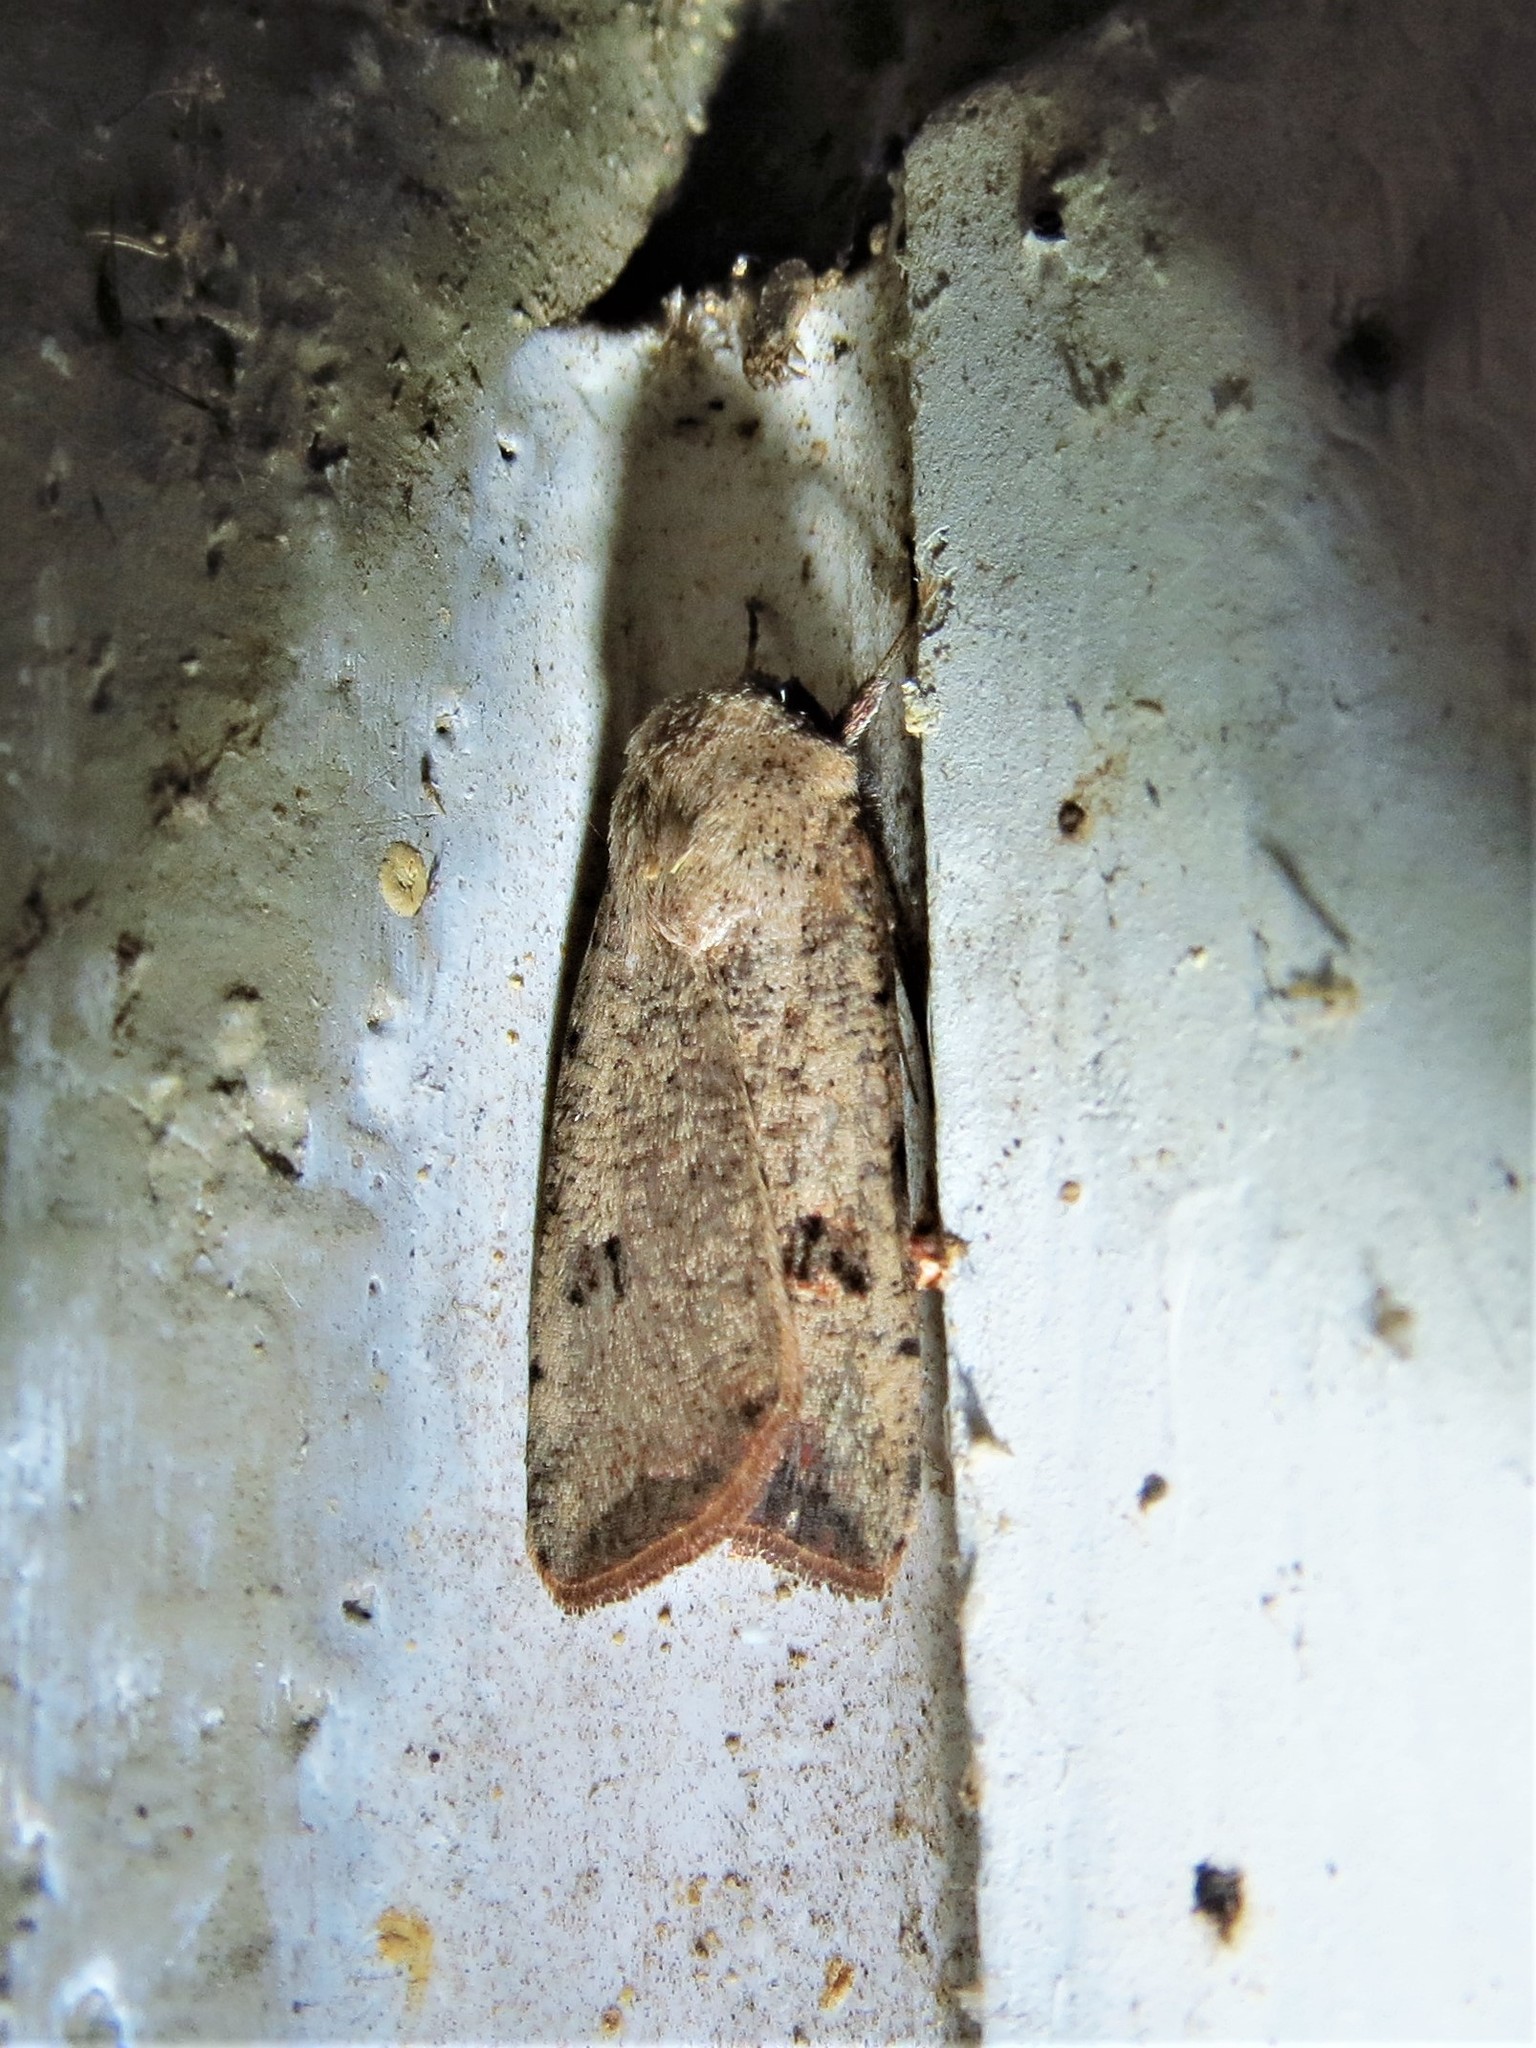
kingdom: Animalia
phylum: Arthropoda
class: Insecta
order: Lepidoptera
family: Noctuidae
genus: Anicla
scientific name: Anicla infecta
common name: Green cutworm
